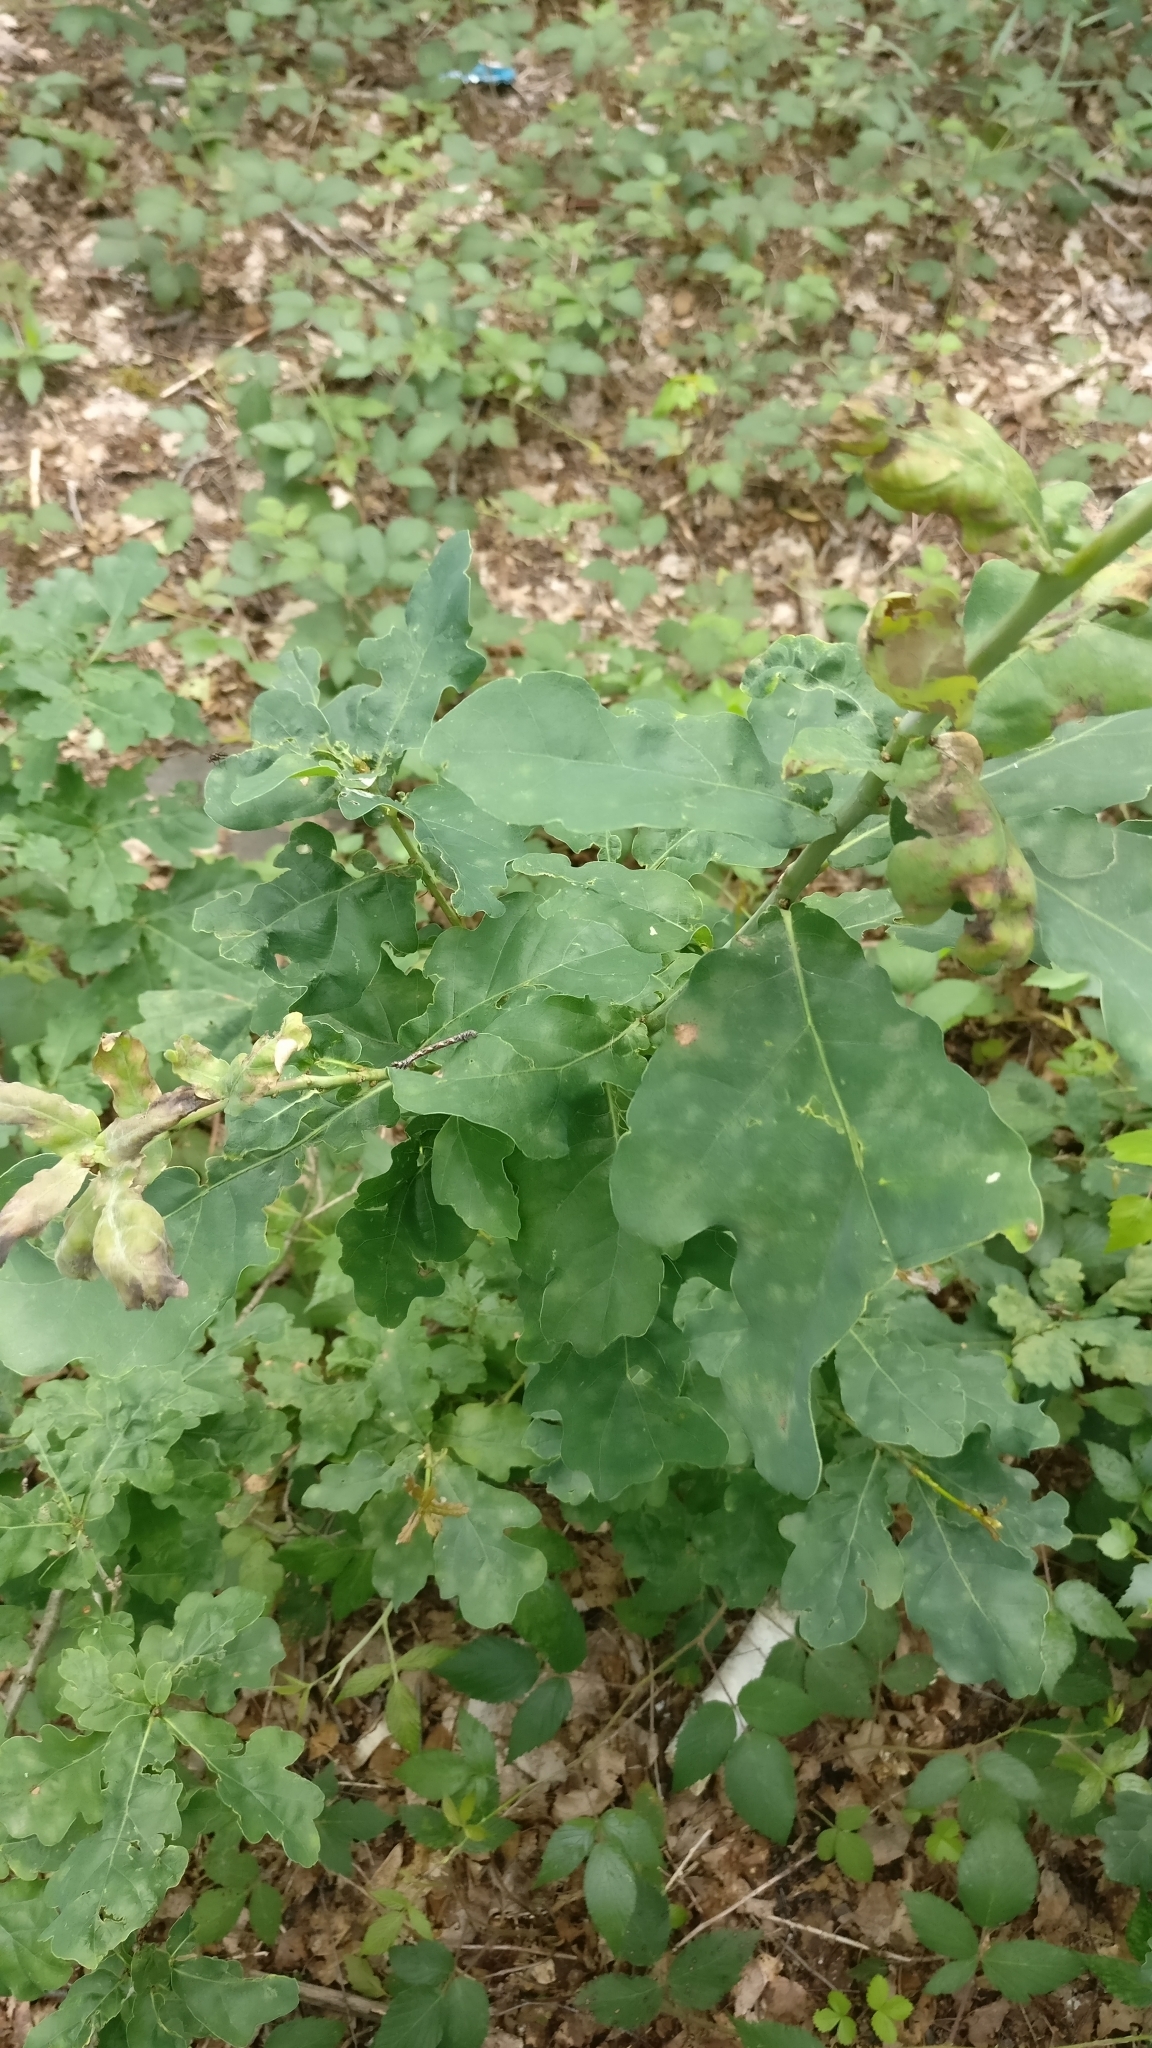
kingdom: Plantae
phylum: Tracheophyta
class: Magnoliopsida
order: Fagales
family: Fagaceae
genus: Quercus
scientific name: Quercus robur
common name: Pedunculate oak
